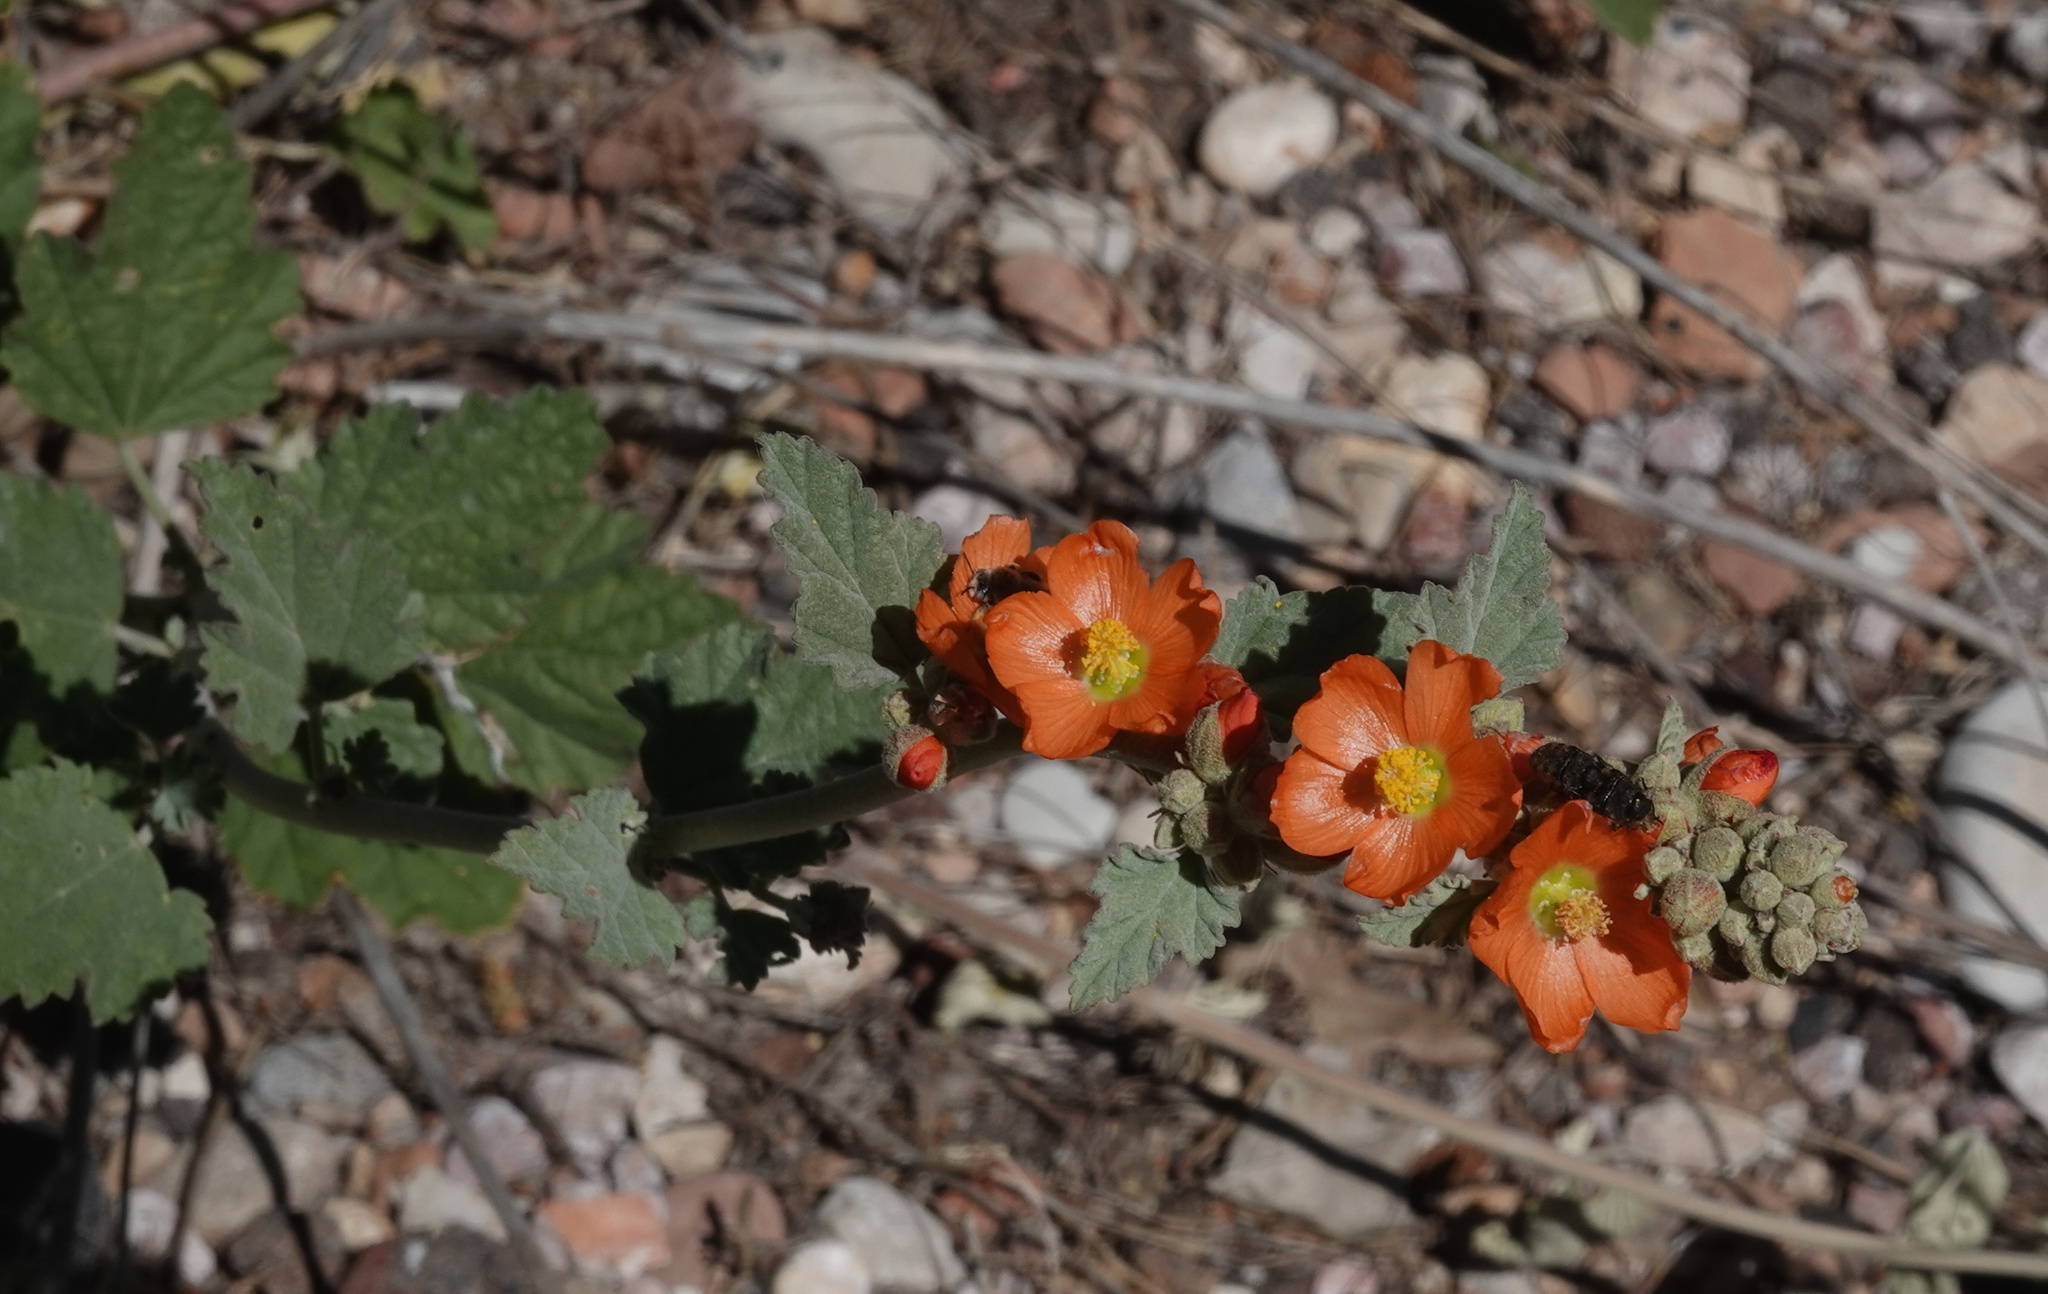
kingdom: Plantae
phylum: Tracheophyta
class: Magnoliopsida
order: Malvales
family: Malvaceae
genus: Sphaeralcea
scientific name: Sphaeralcea ambigua
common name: Apricot globe-mallow
